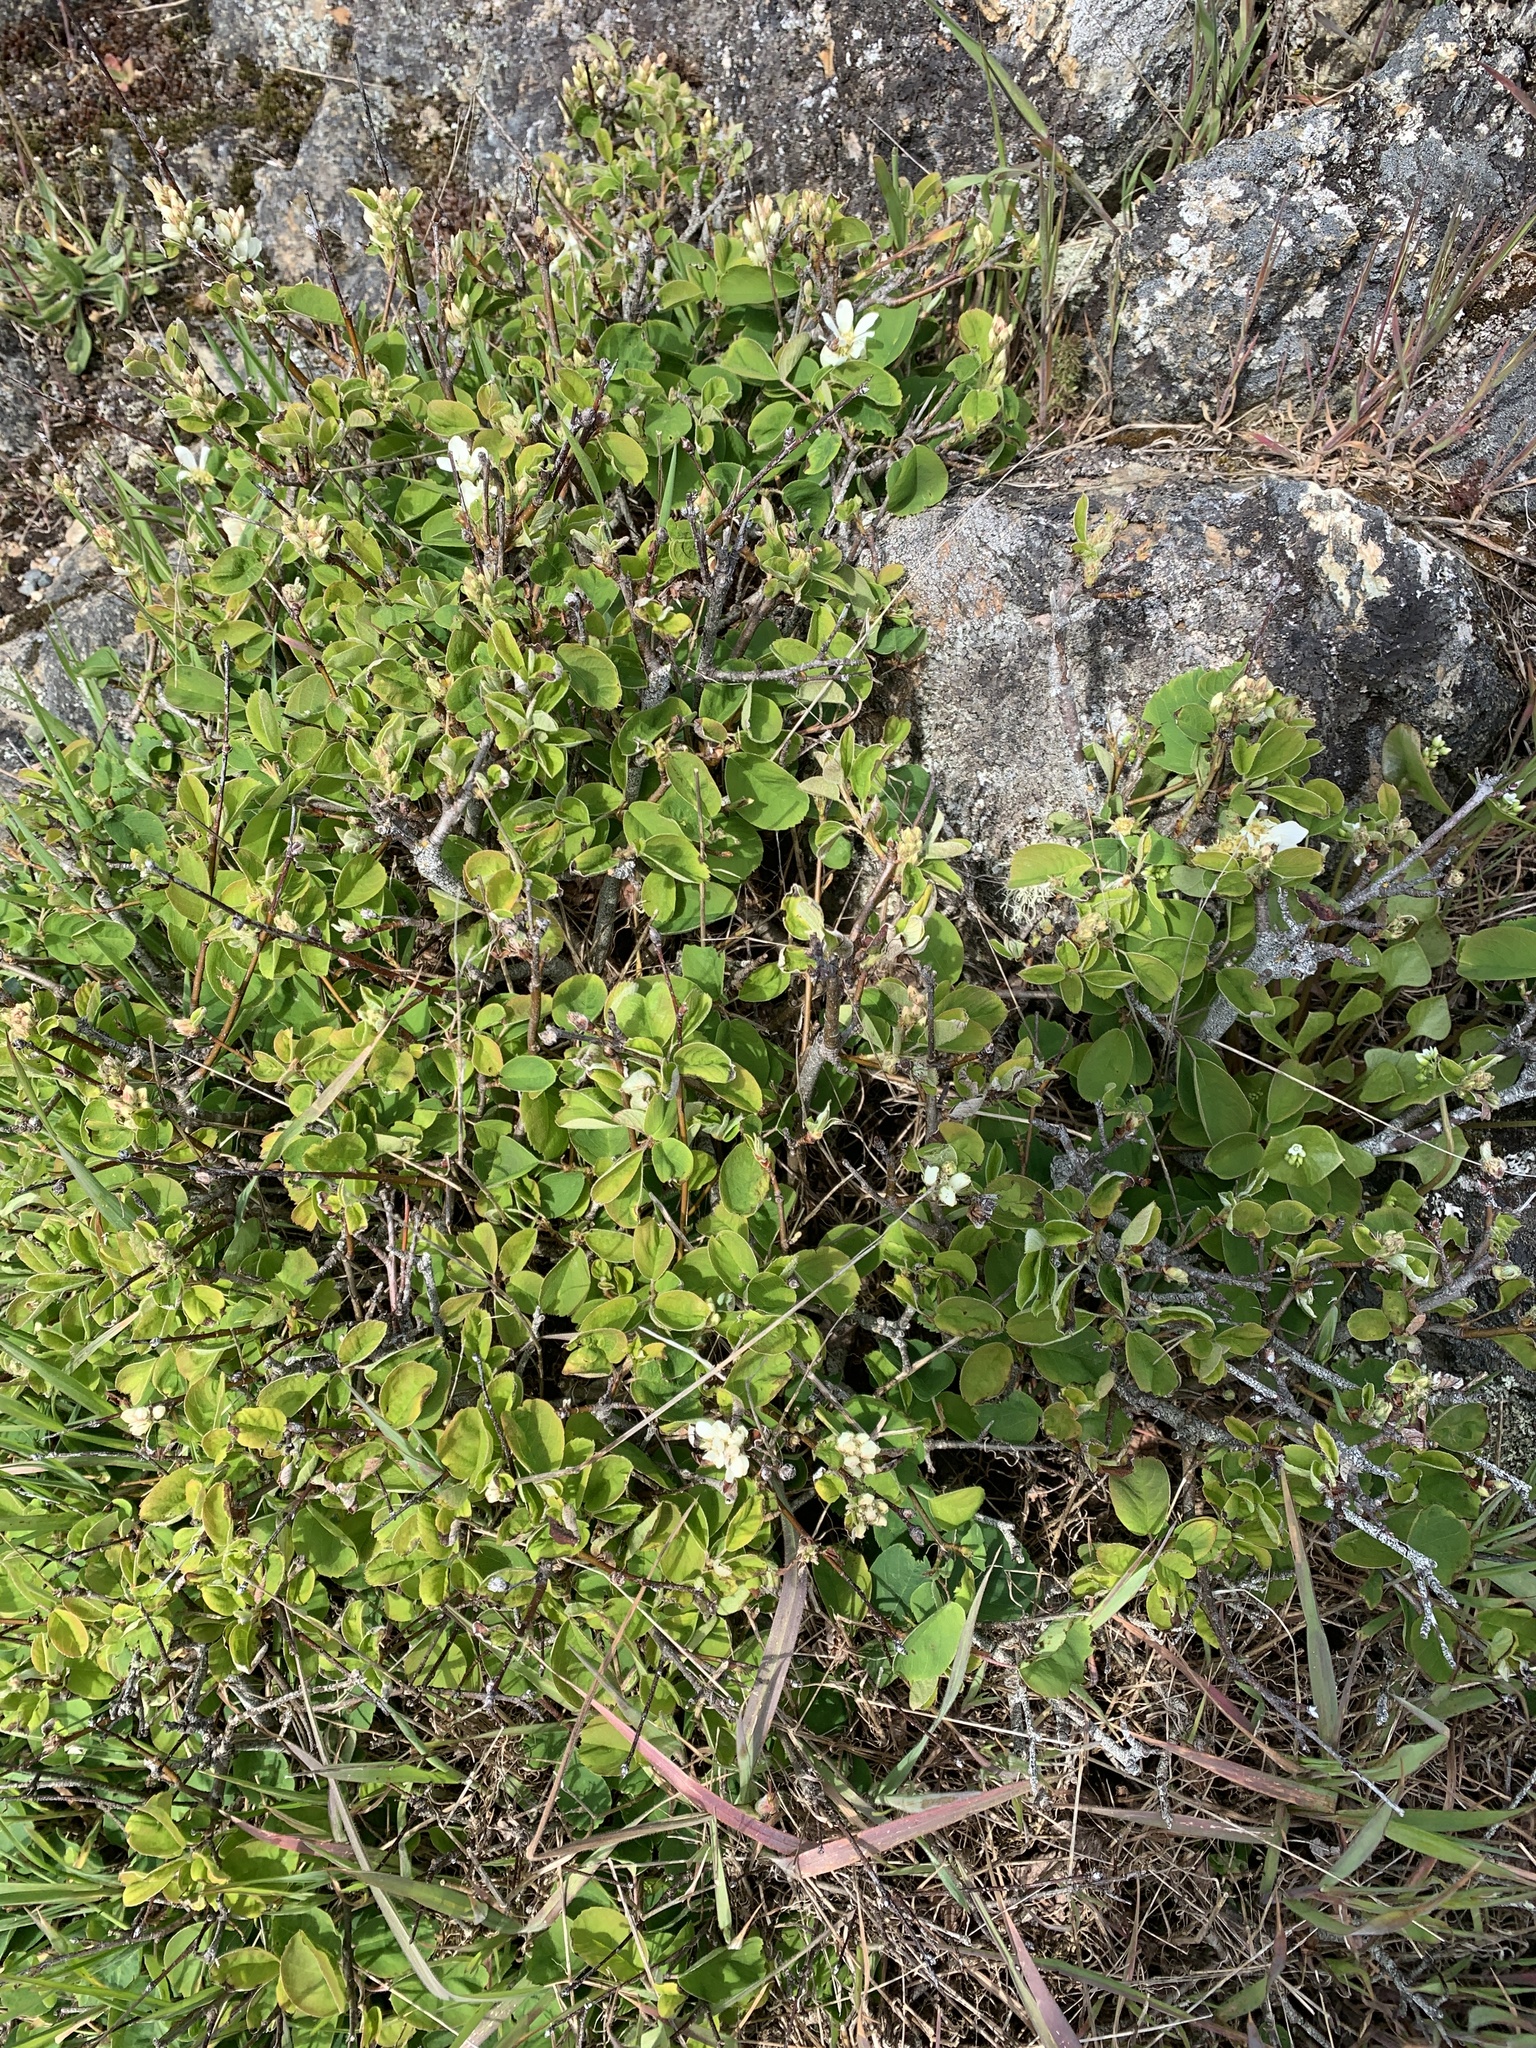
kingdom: Plantae
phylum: Tracheophyta
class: Magnoliopsida
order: Rosales
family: Rosaceae
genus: Amelanchier
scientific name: Amelanchier alnifolia
